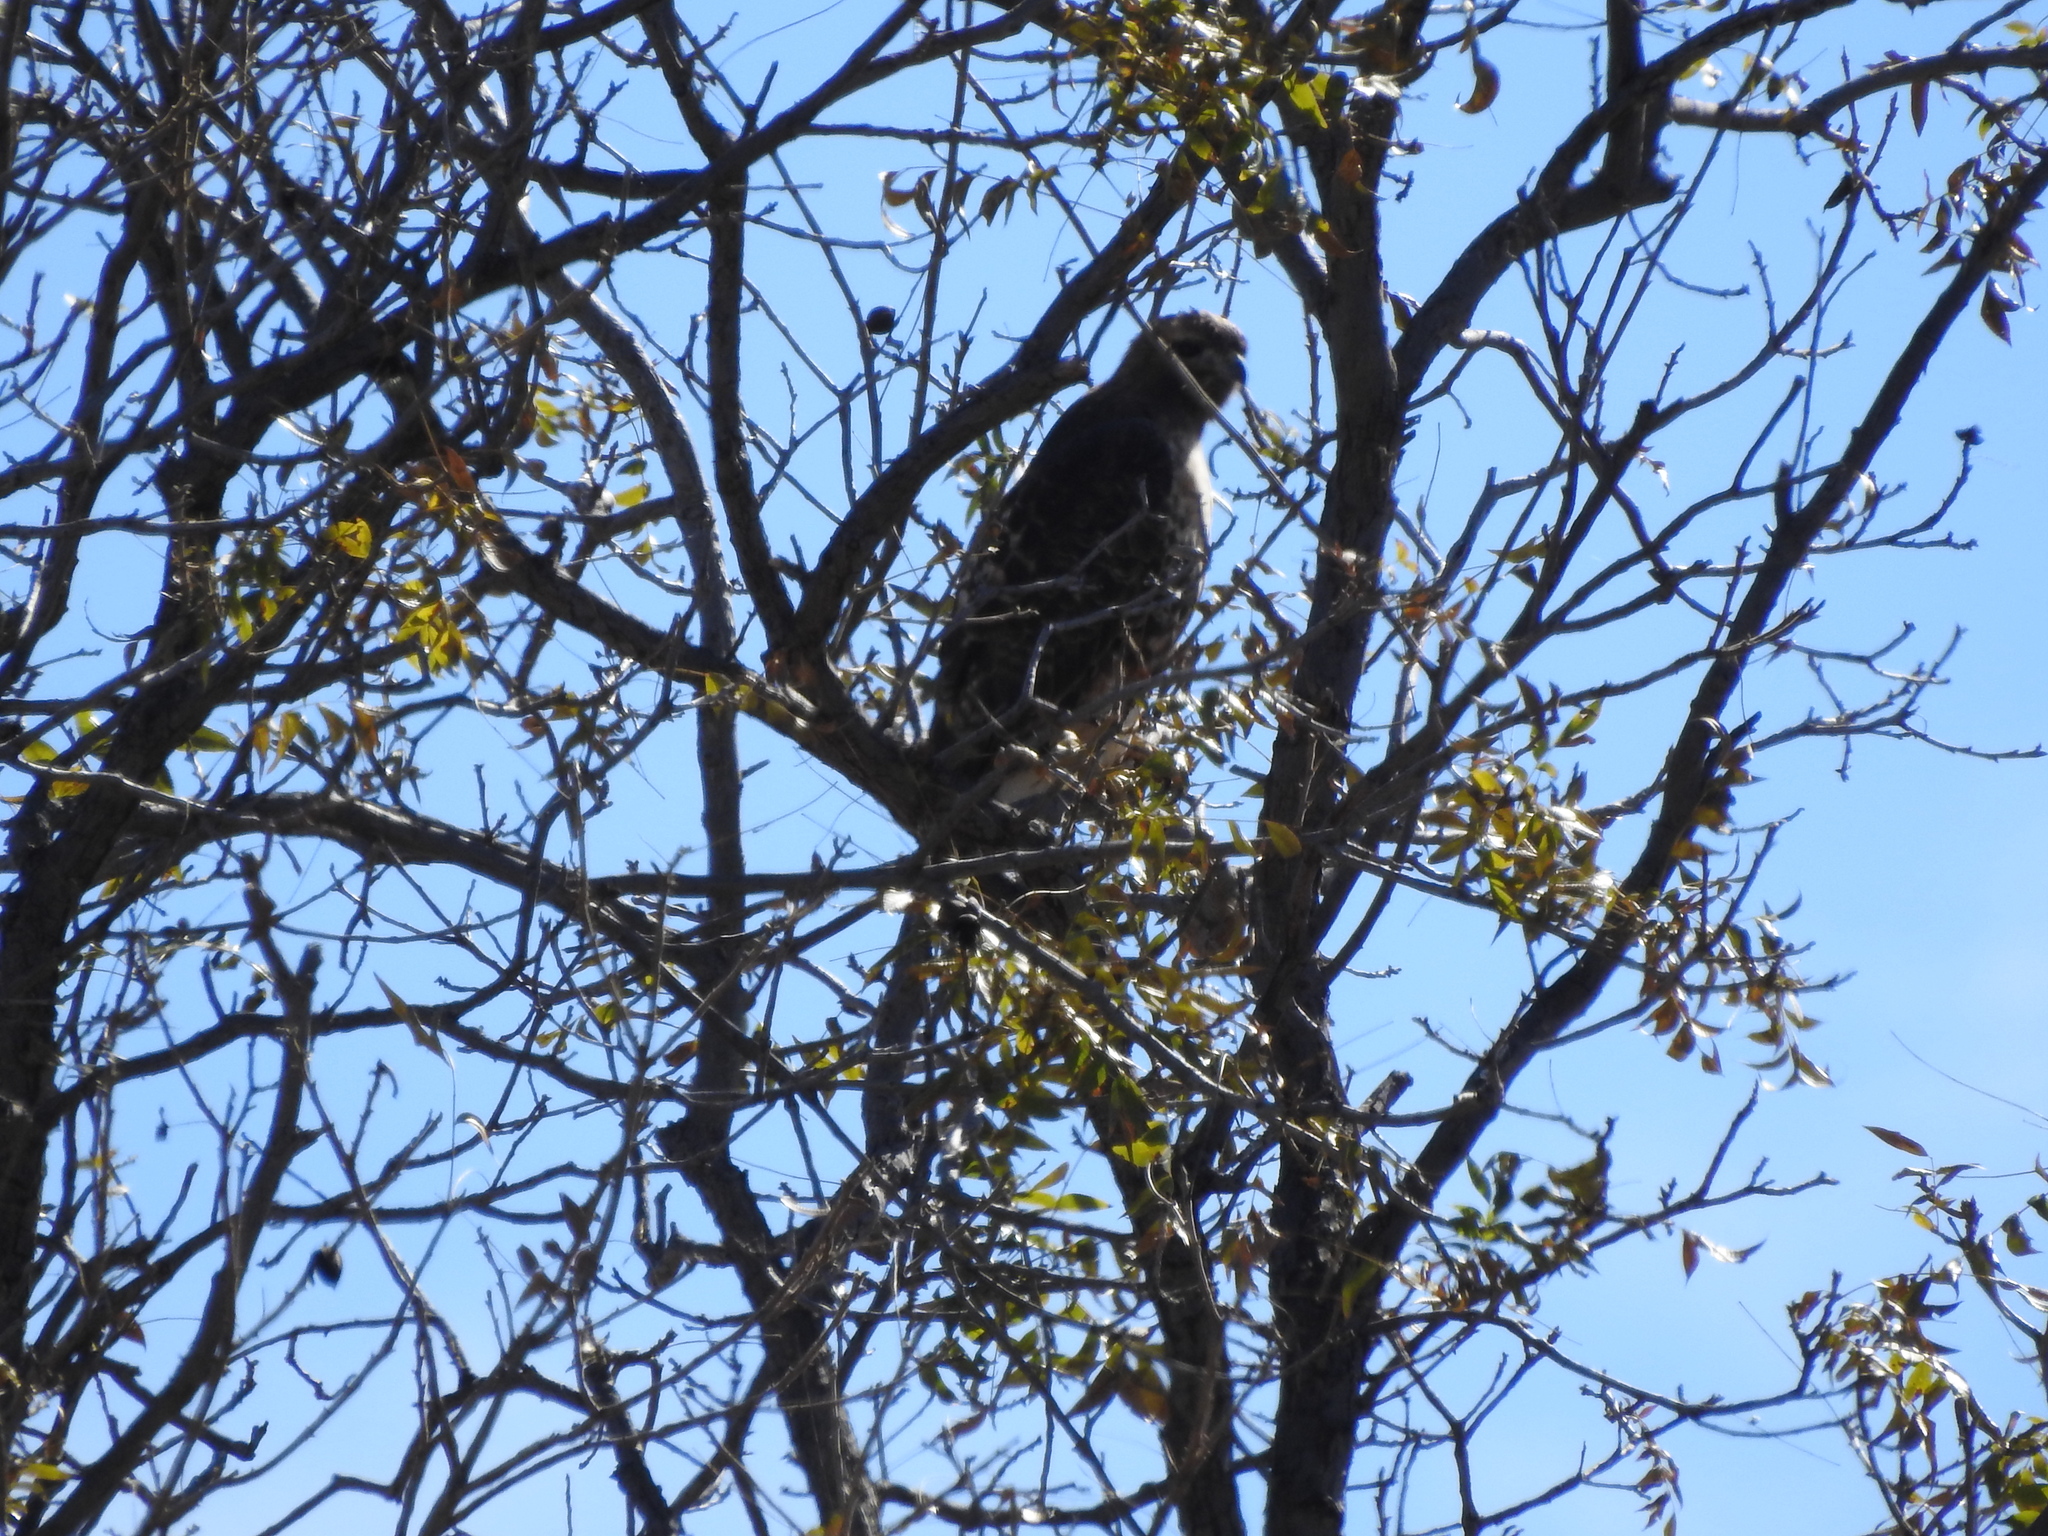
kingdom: Animalia
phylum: Chordata
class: Aves
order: Accipitriformes
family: Accipitridae
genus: Buteo
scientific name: Buteo jamaicensis
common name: Red-tailed hawk
